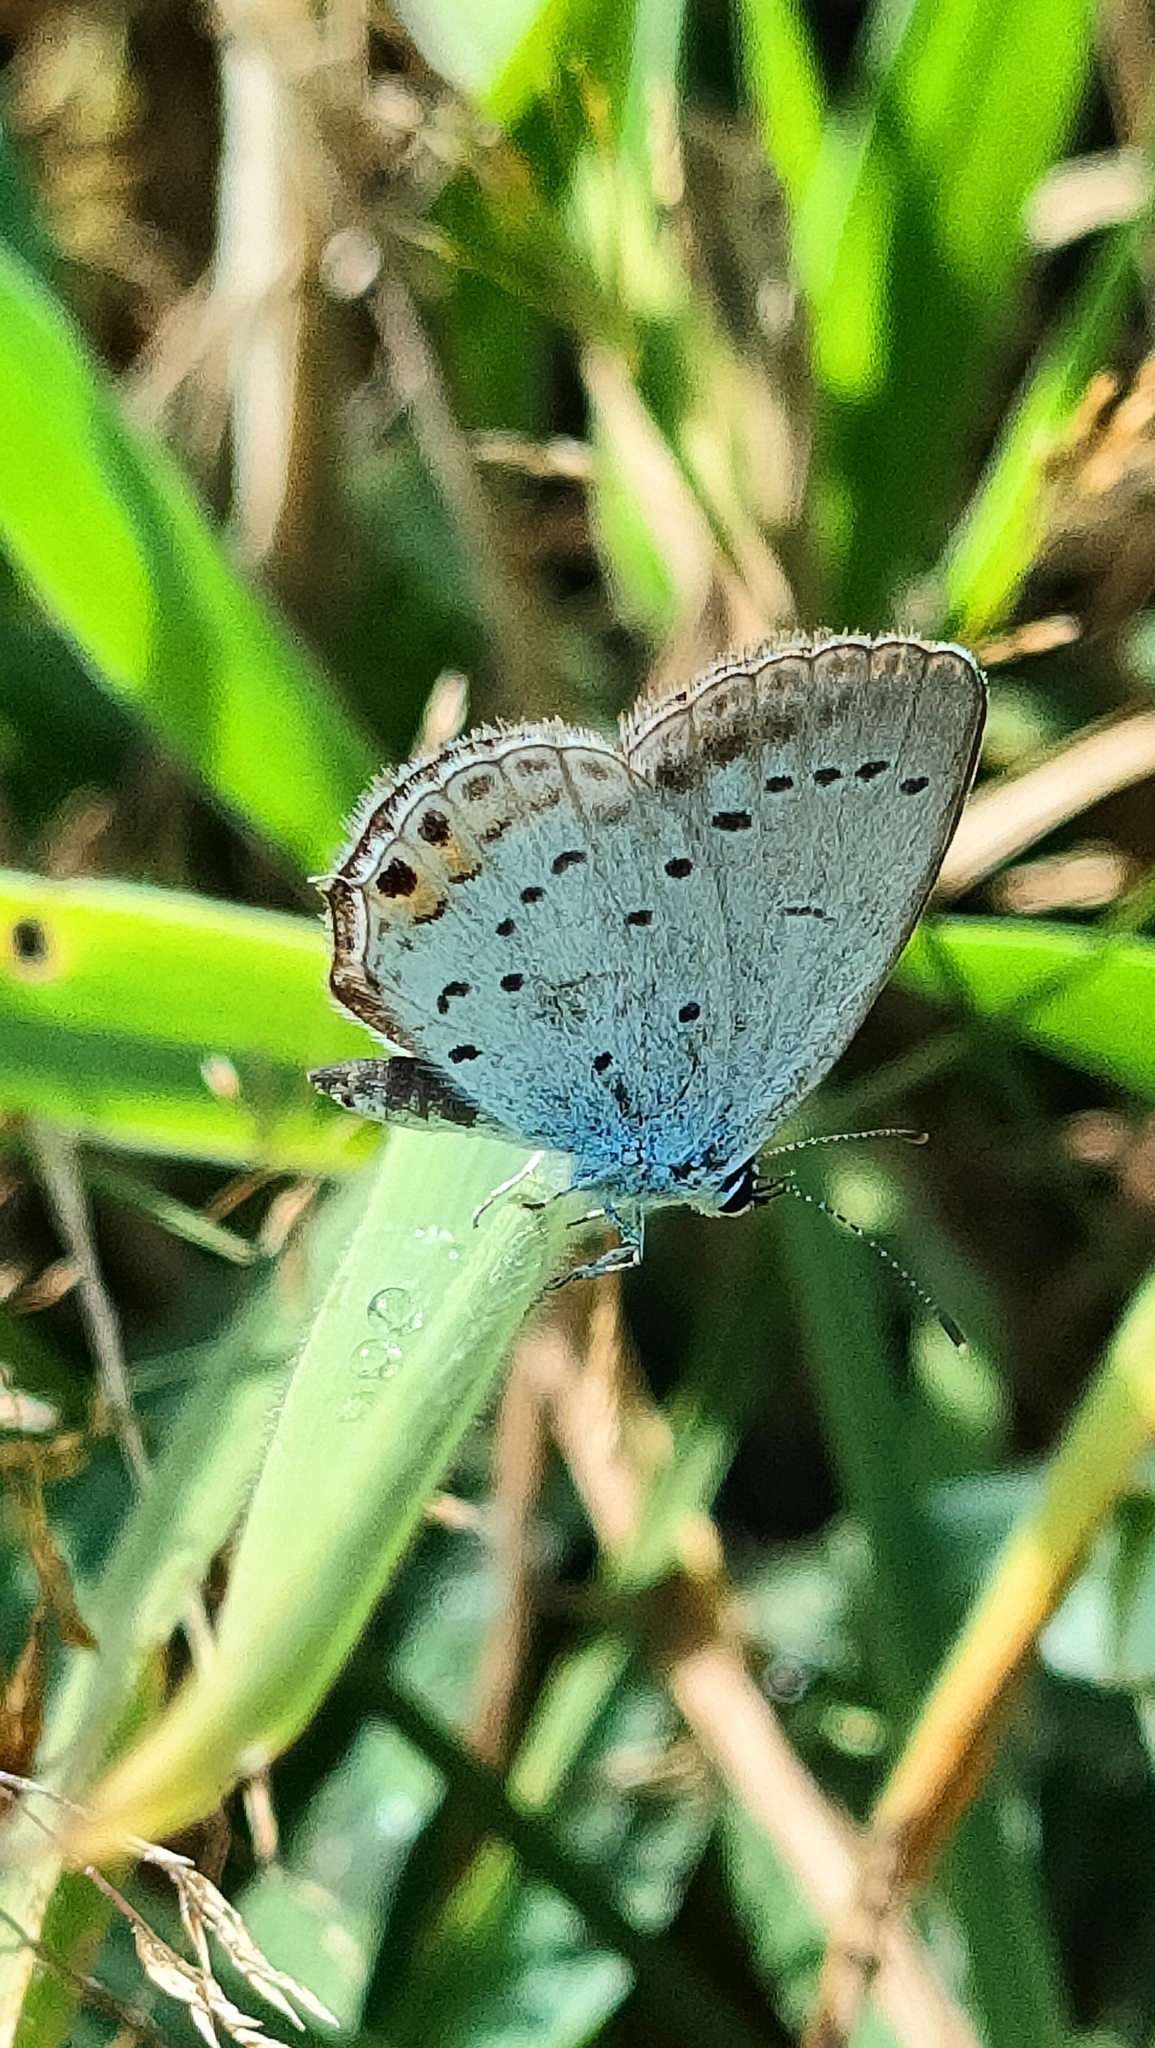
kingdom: Animalia
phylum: Arthropoda
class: Insecta
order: Lepidoptera
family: Lycaenidae
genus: Elkalyce
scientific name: Elkalyce argiades
